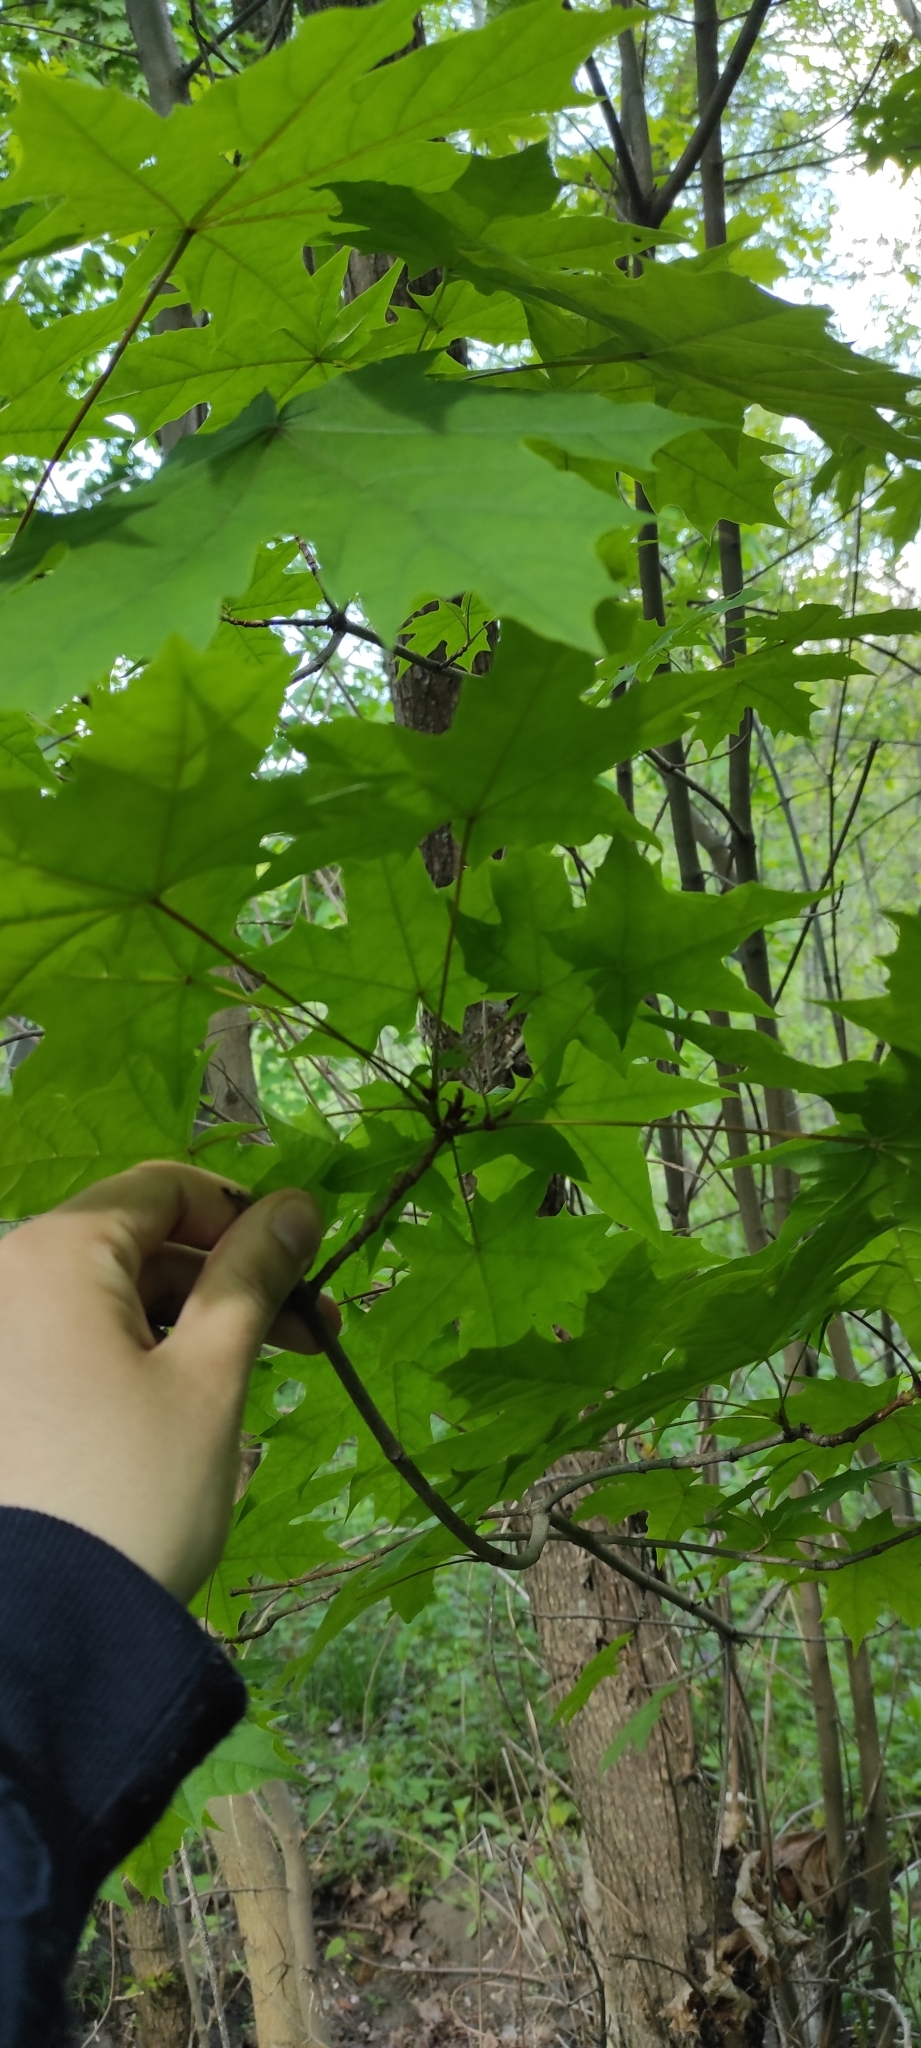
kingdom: Plantae
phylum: Tracheophyta
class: Magnoliopsida
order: Sapindales
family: Sapindaceae
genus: Acer
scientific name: Acer platanoides
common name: Norway maple
